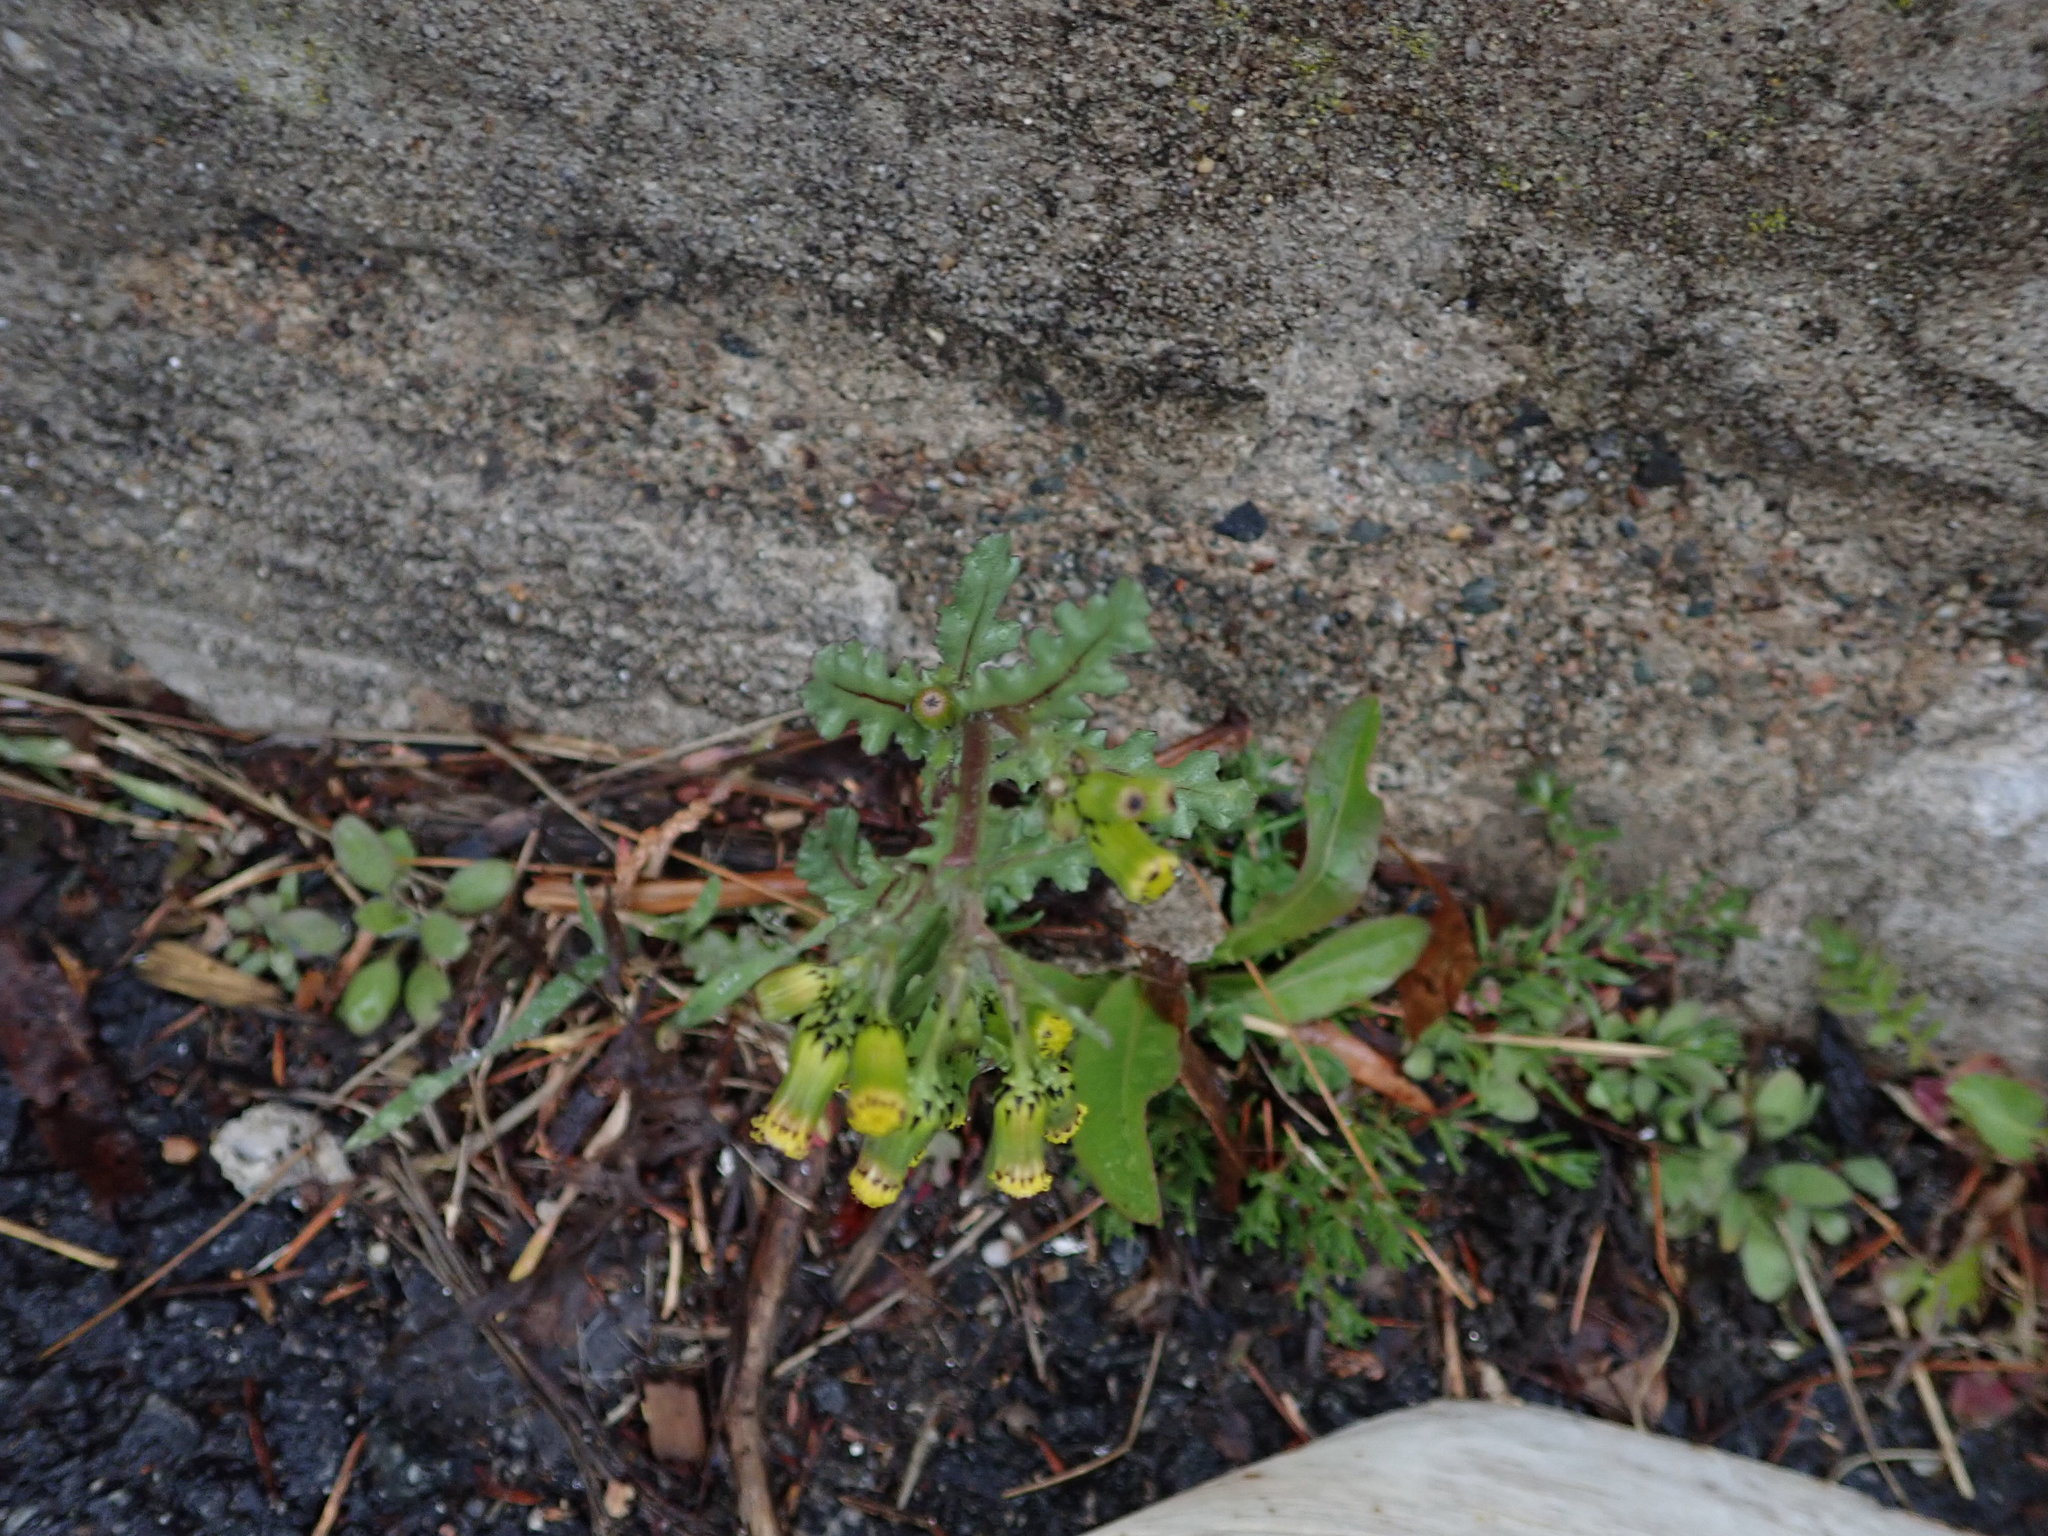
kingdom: Plantae
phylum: Tracheophyta
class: Magnoliopsida
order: Asterales
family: Asteraceae
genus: Senecio
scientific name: Senecio vulgaris
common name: Old-man-in-the-spring
